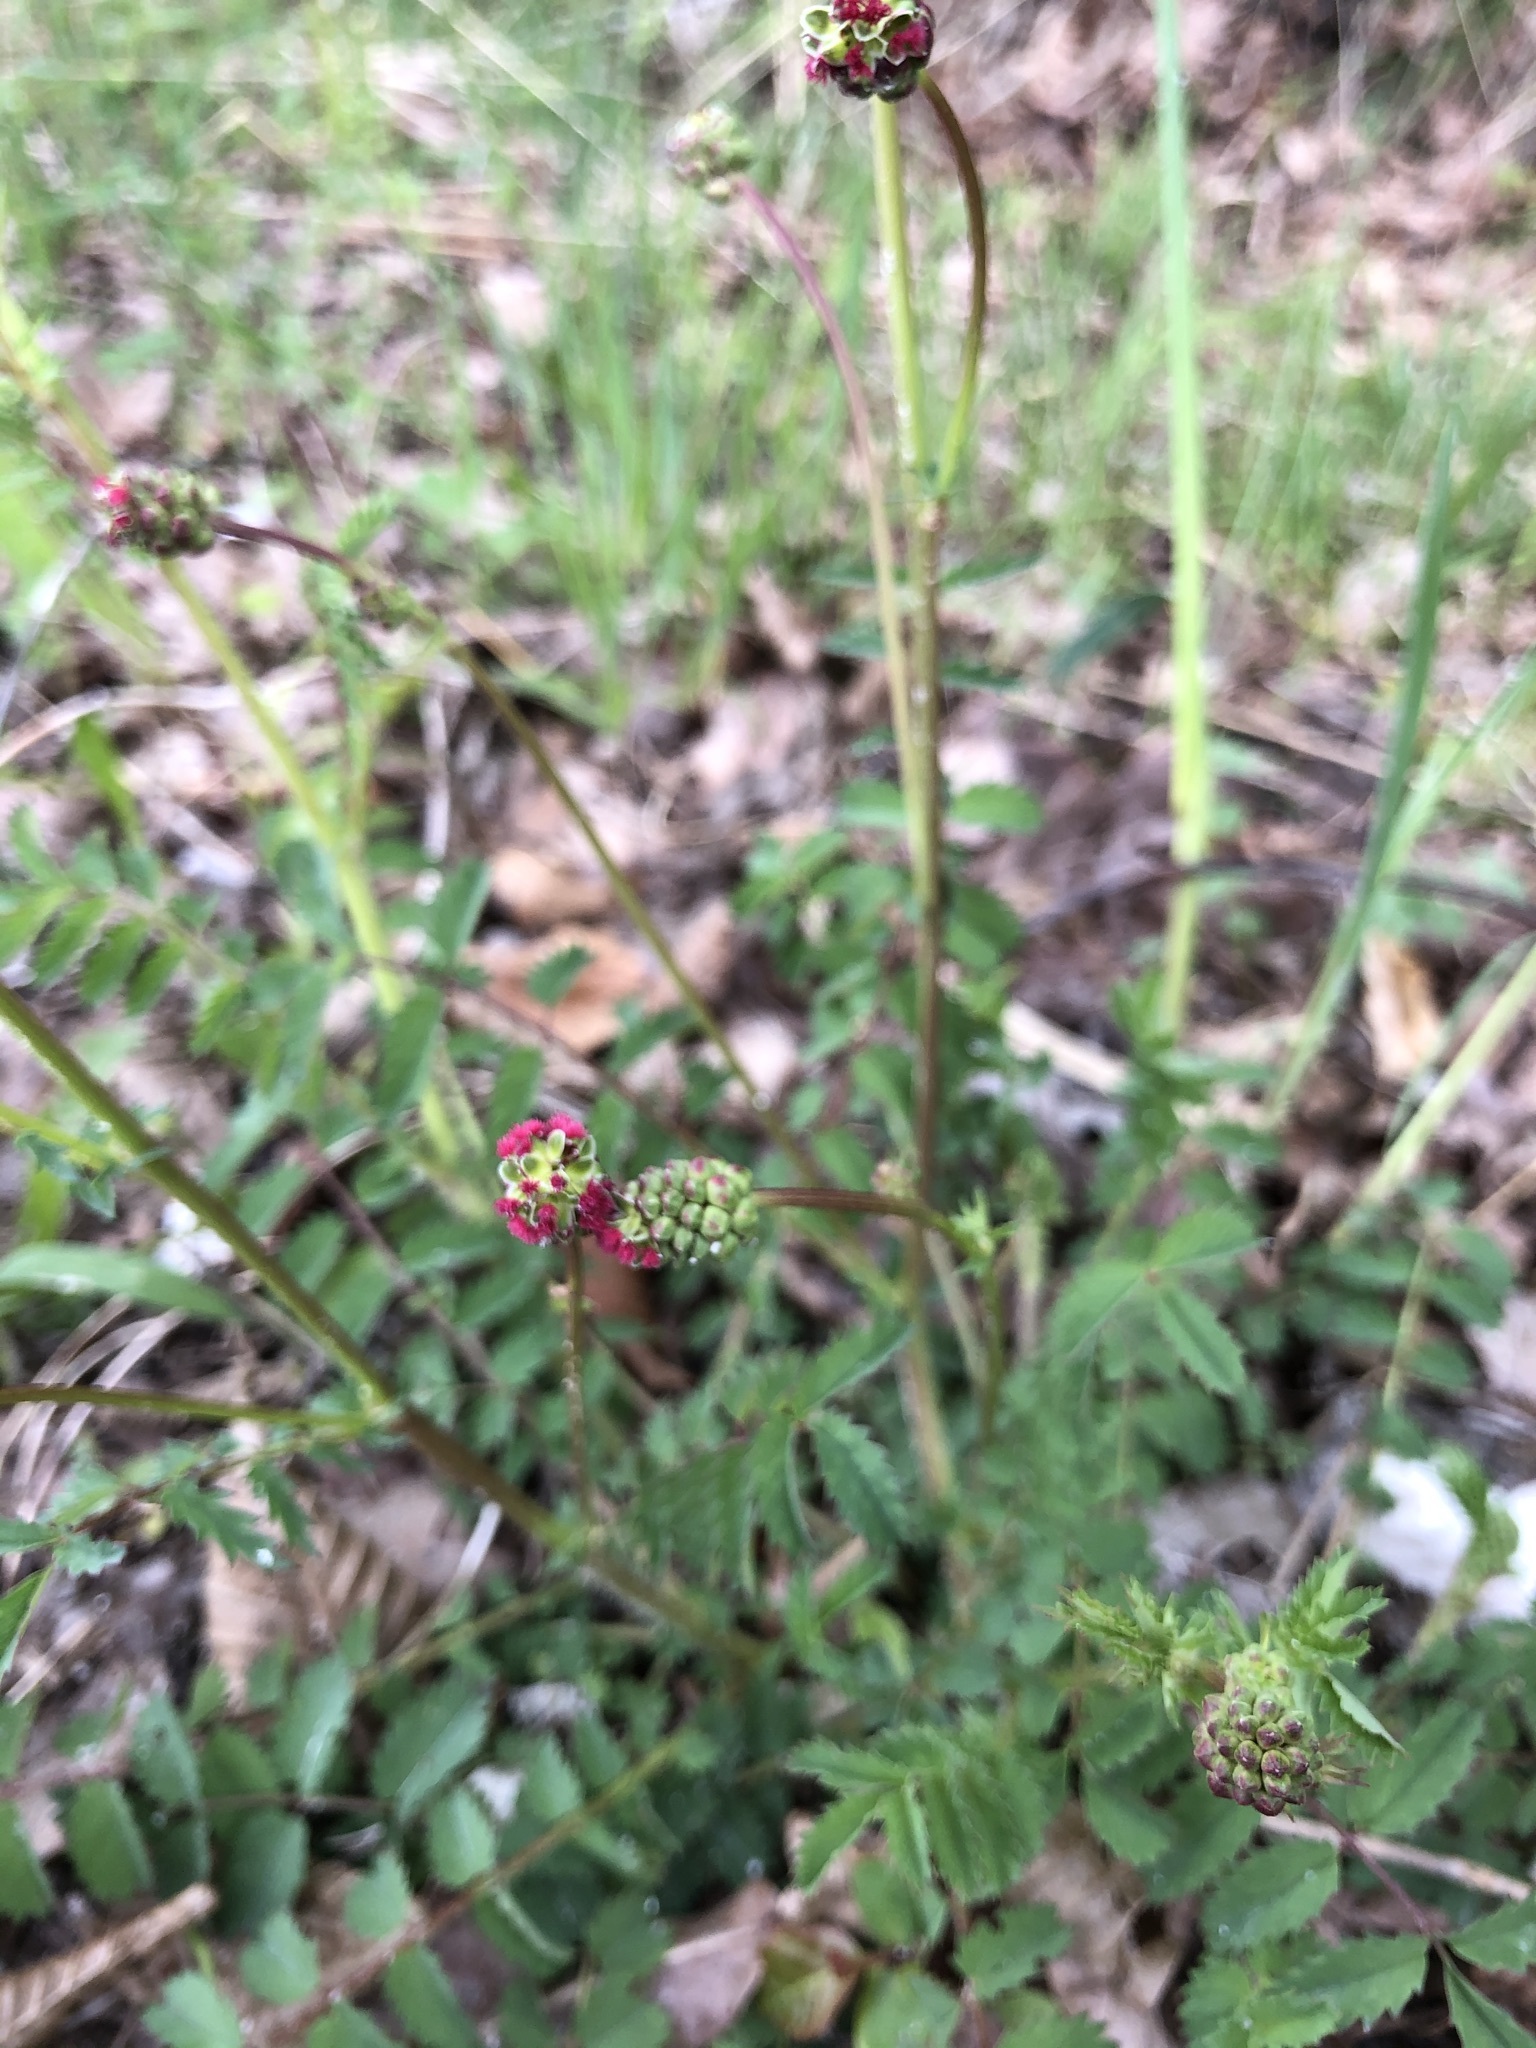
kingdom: Plantae
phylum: Tracheophyta
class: Magnoliopsida
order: Rosales
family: Rosaceae
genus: Poterium
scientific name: Poterium sanguisorba
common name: Salad burnet
